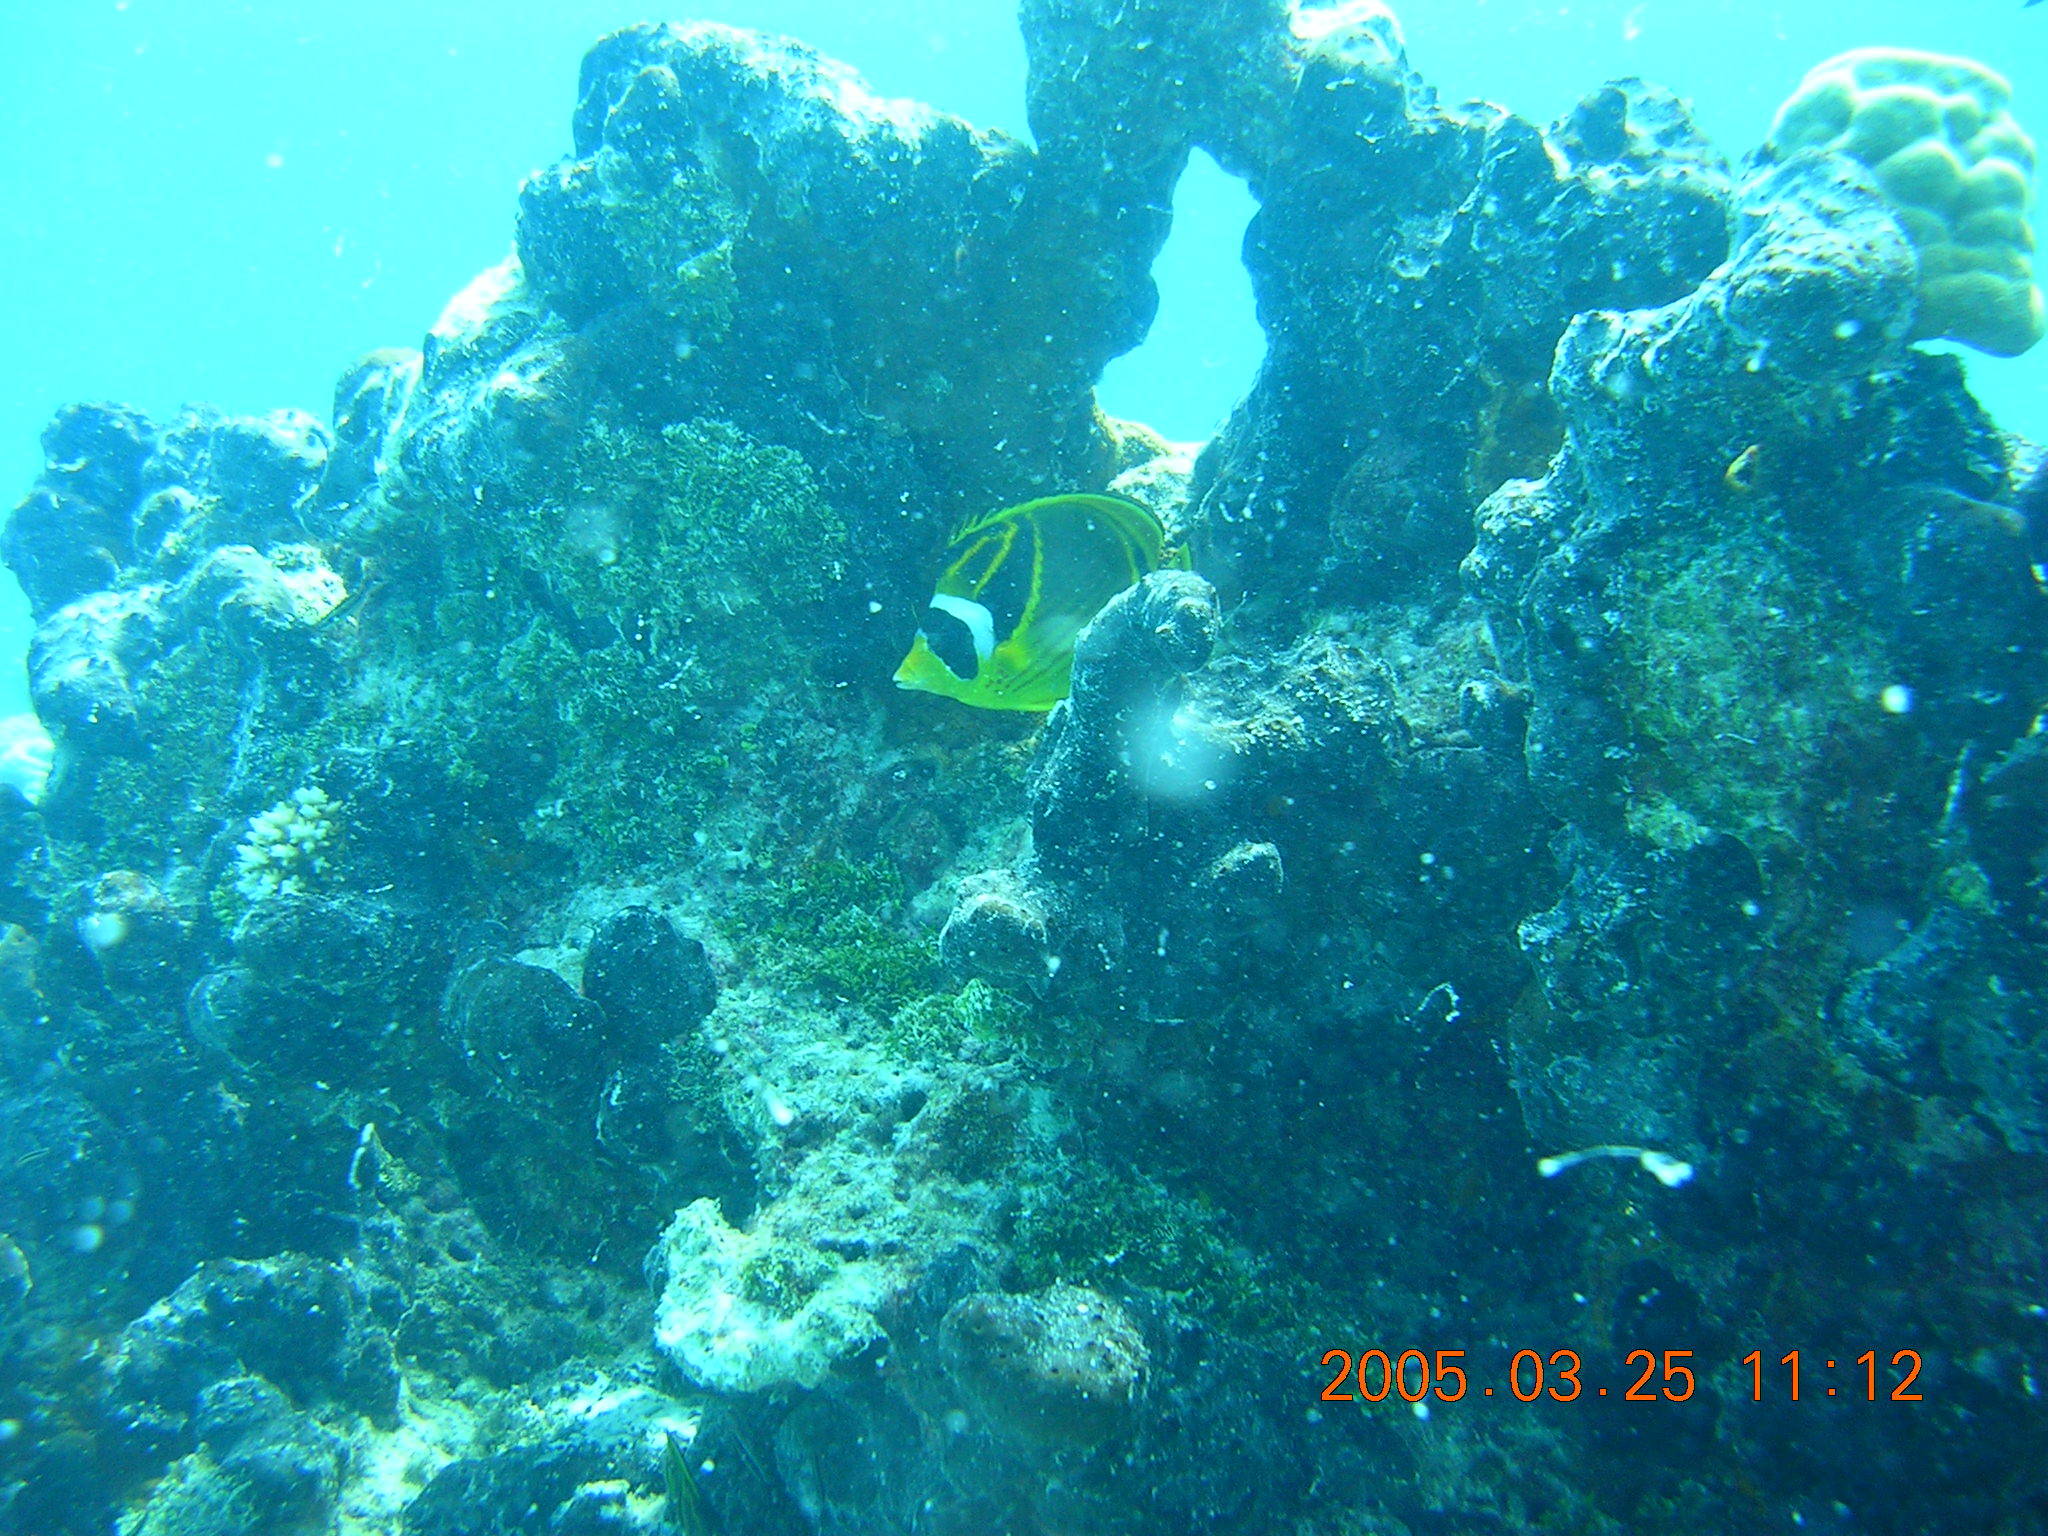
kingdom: Animalia
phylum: Chordata
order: Perciformes
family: Chaetodontidae
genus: Chaetodon
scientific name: Chaetodon lunula
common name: Raccoon butterflyfish
